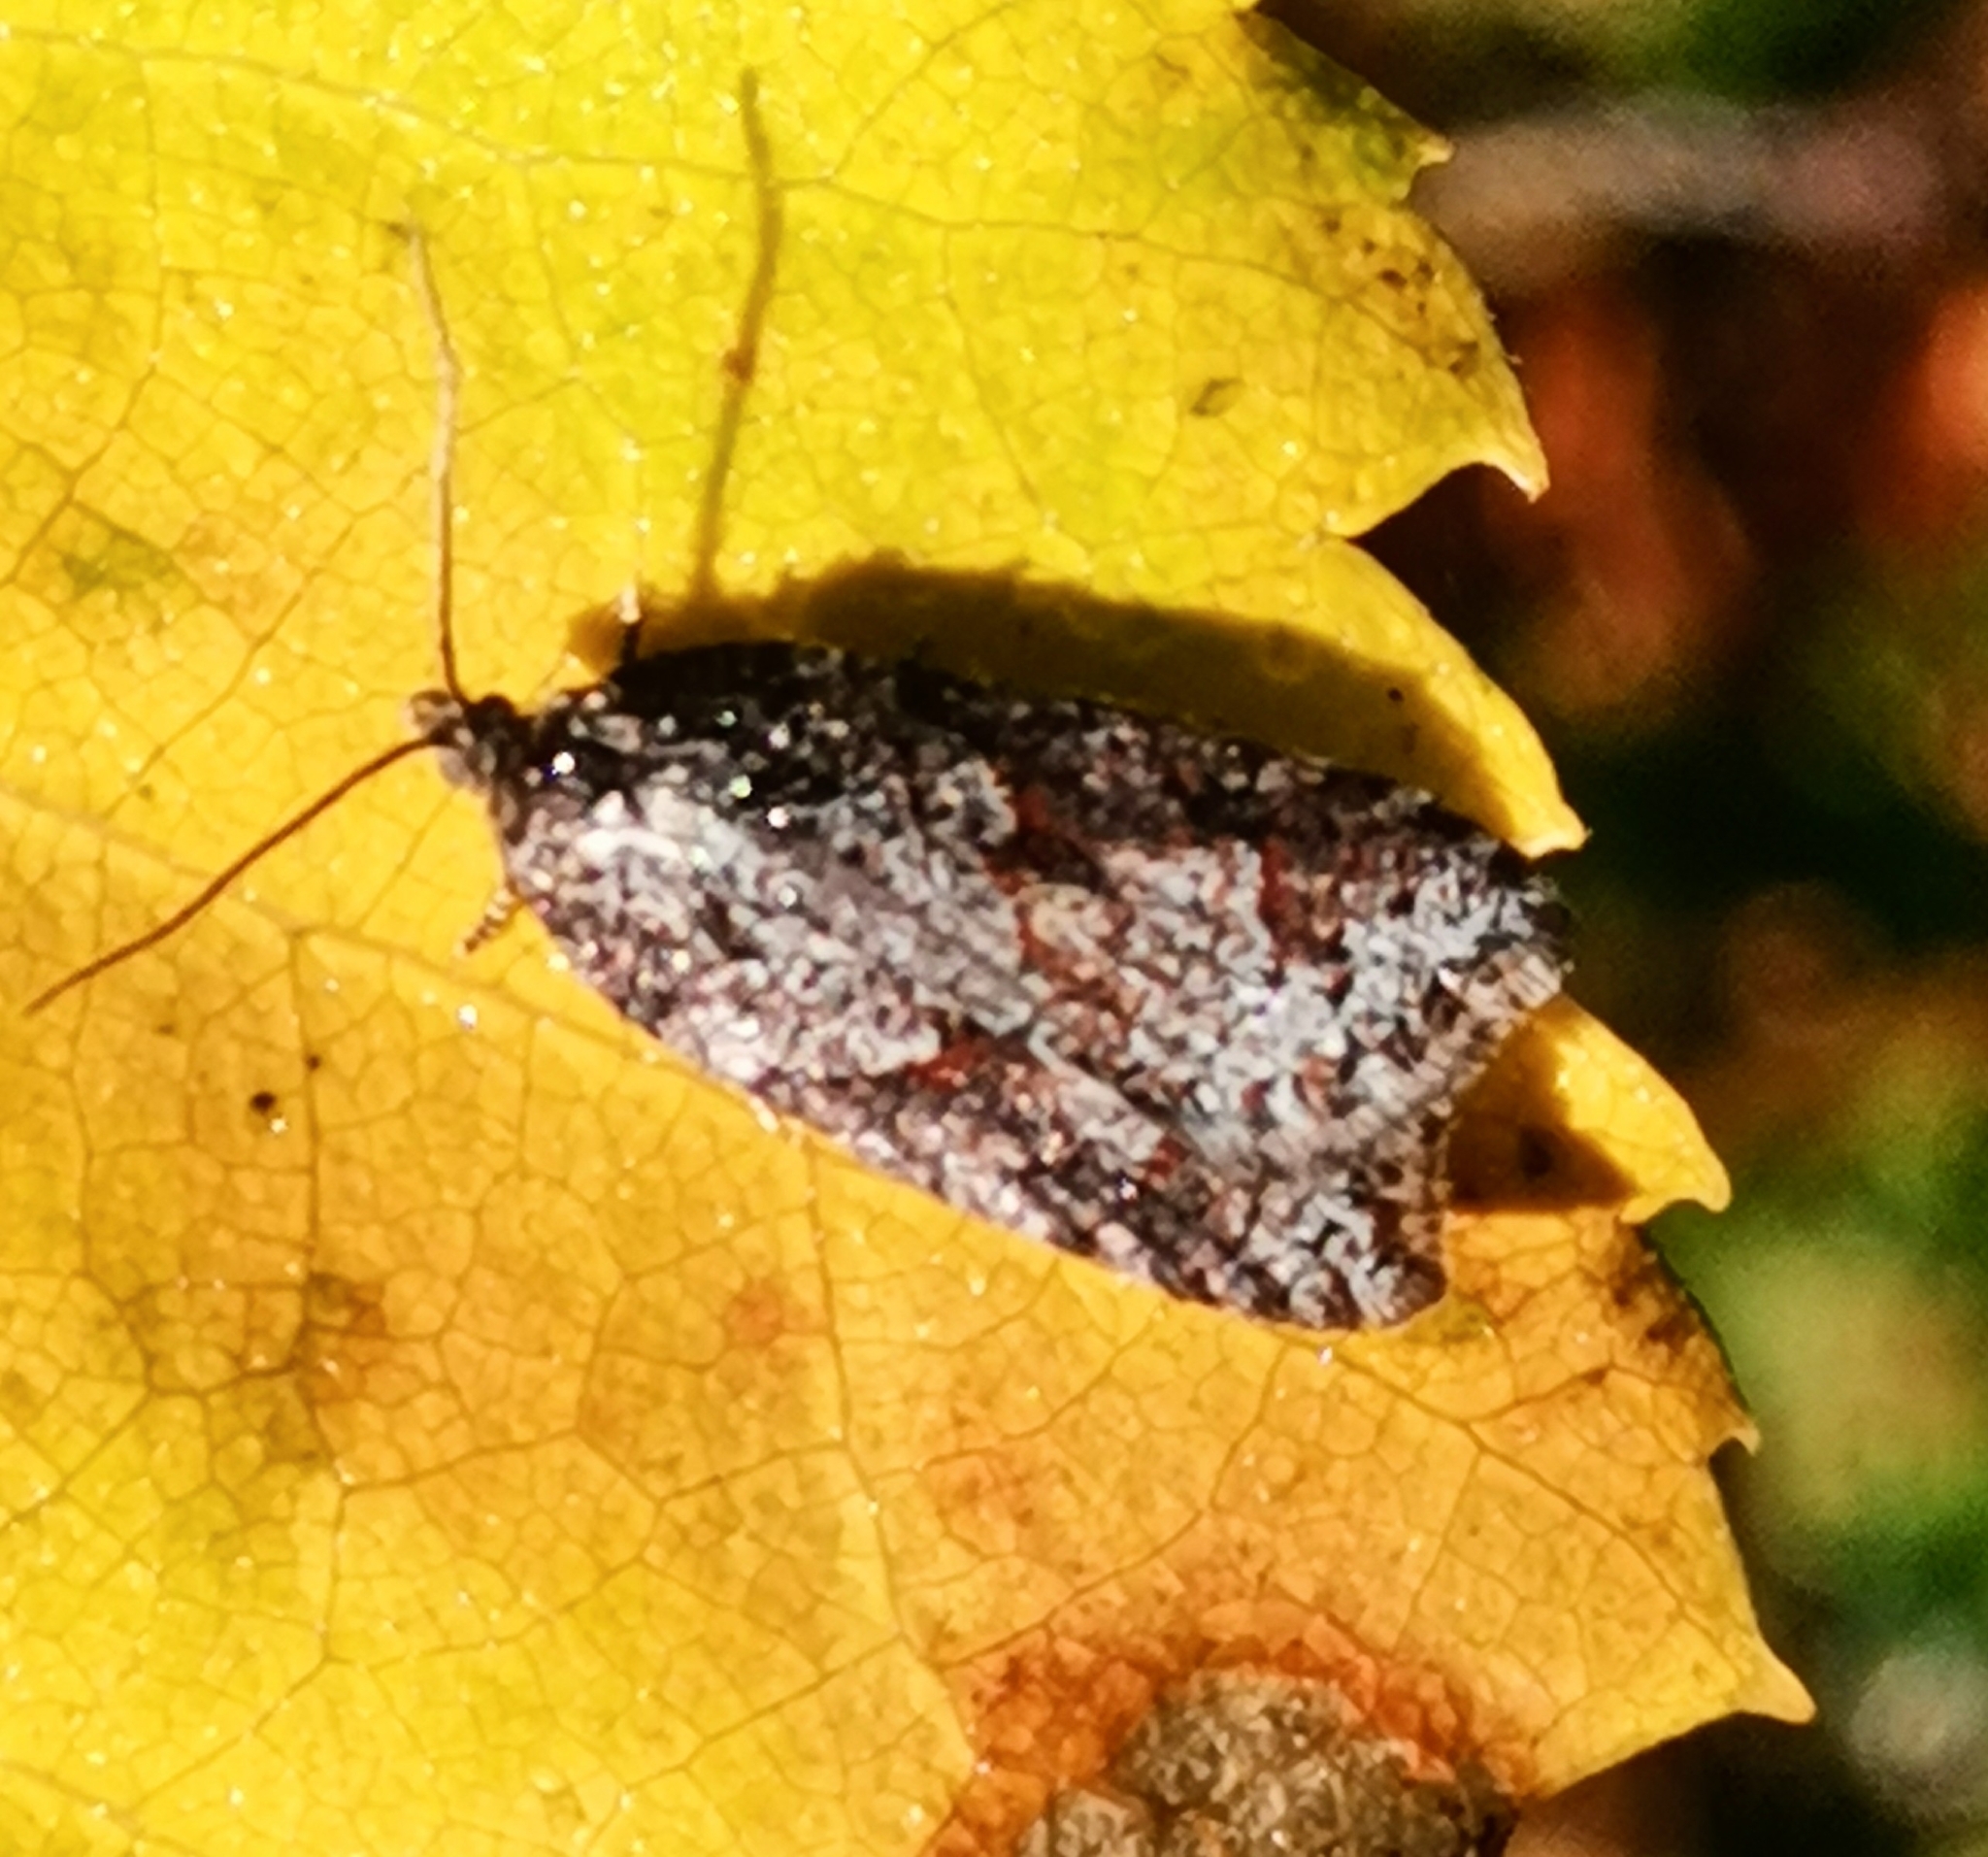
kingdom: Animalia
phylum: Arthropoda
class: Insecta
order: Lepidoptera
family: Tortricidae
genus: Acleris
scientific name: Acleris maccana
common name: Marbled button
